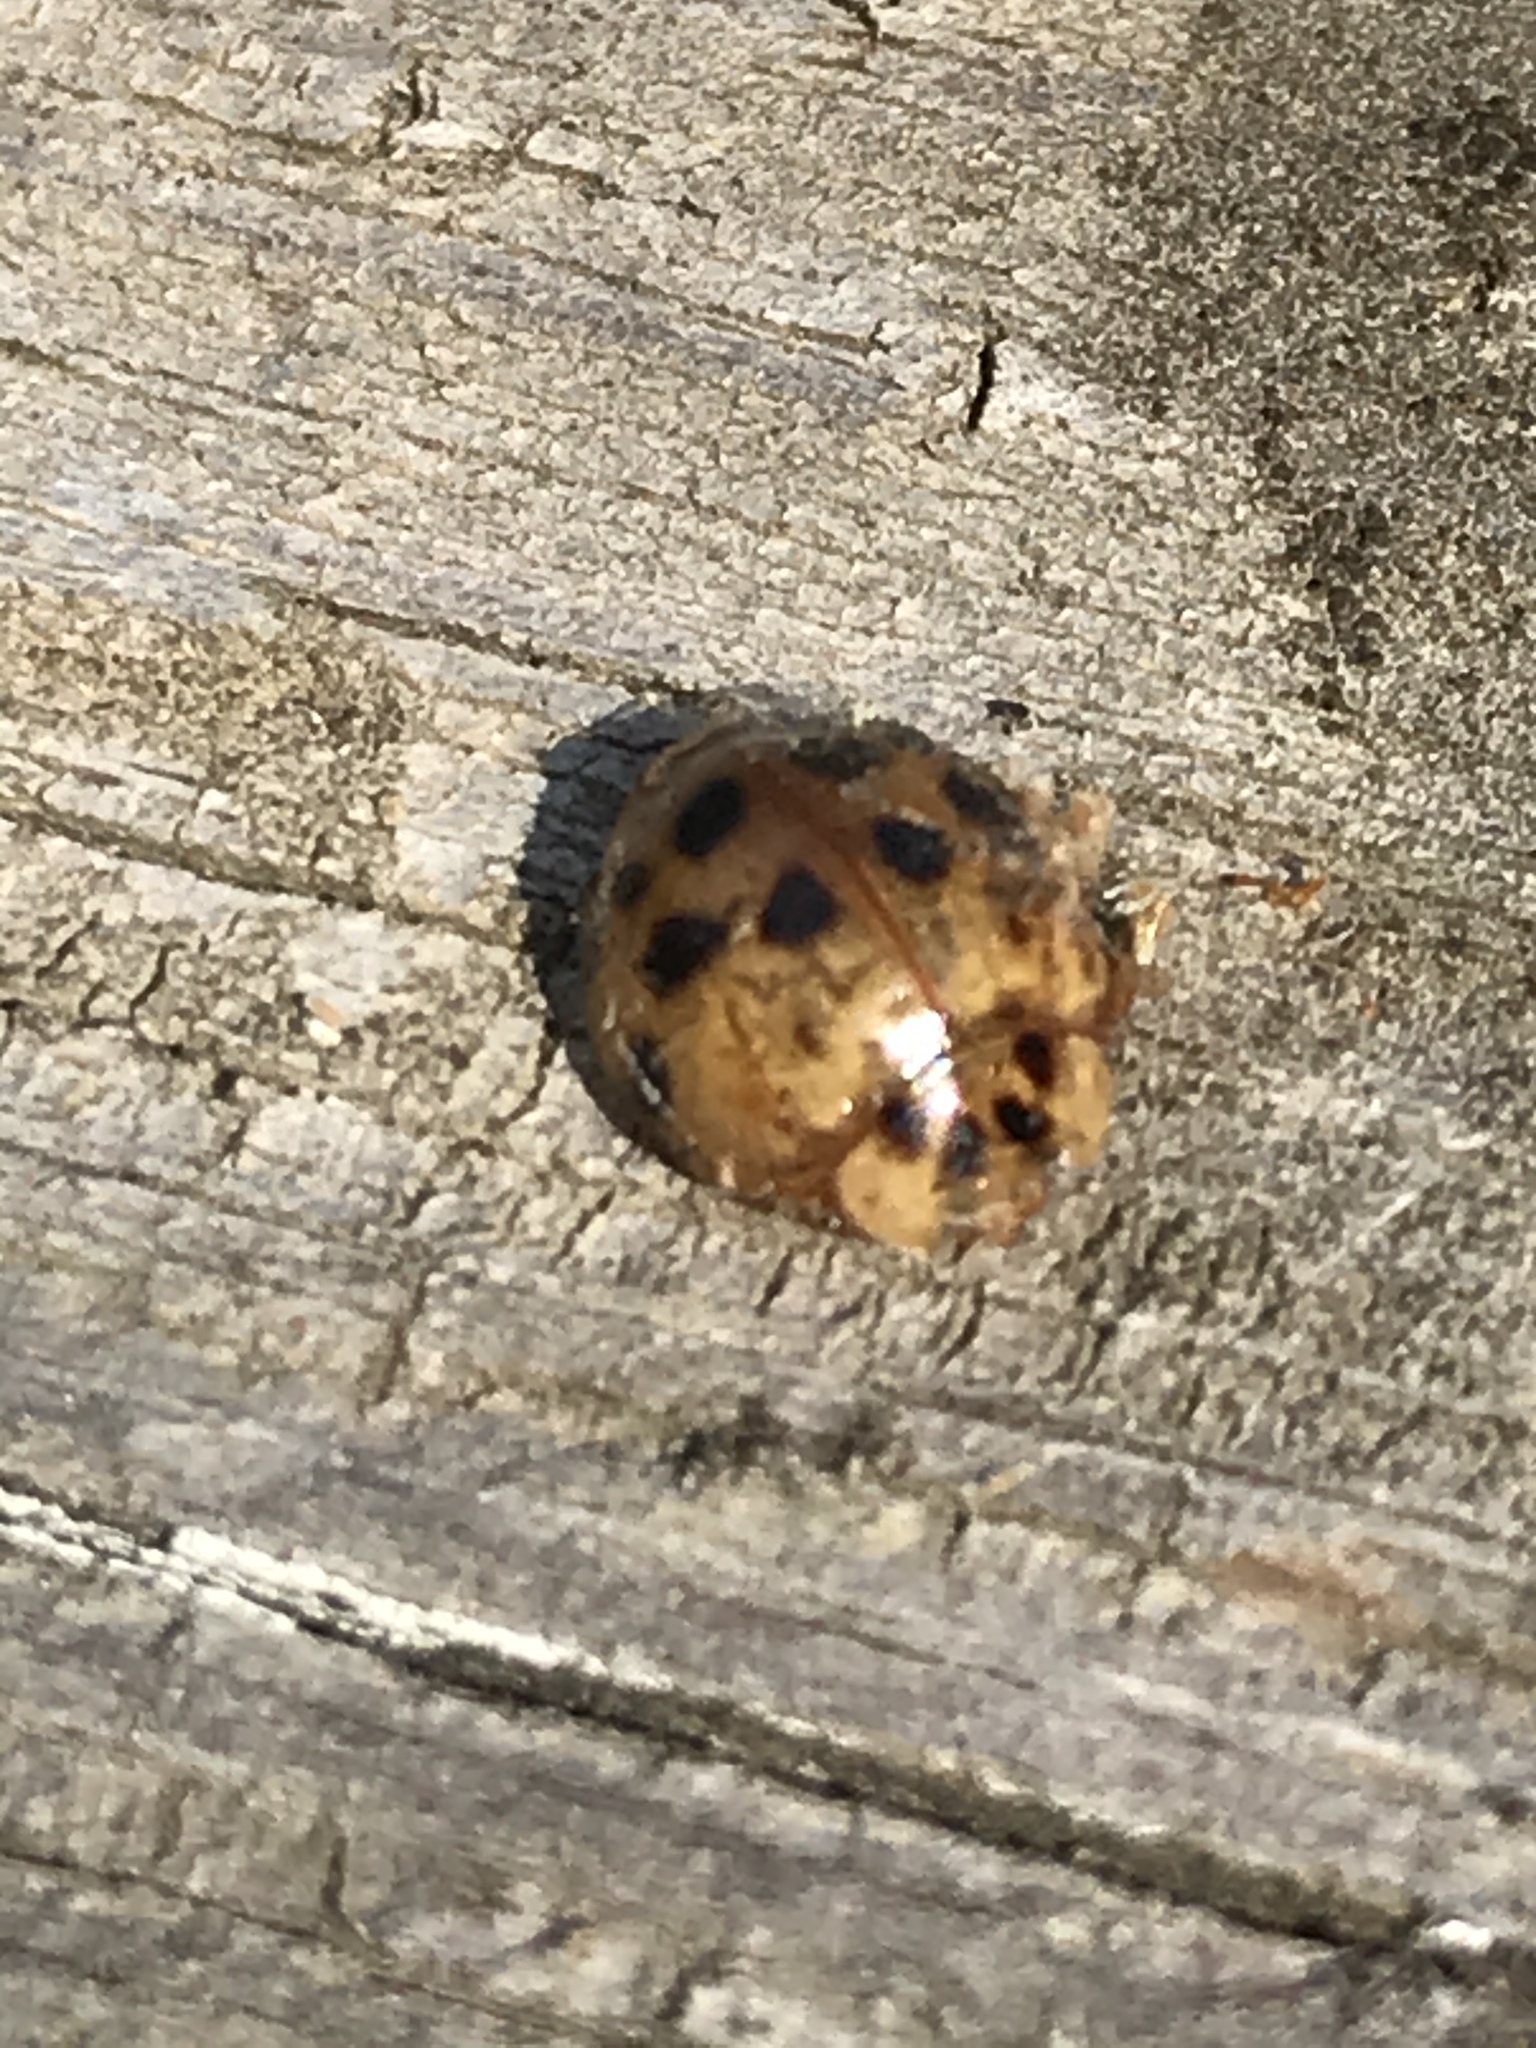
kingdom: Animalia
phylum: Arthropoda
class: Insecta
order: Coleoptera
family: Coccinellidae
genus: Harmonia
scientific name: Harmonia axyridis
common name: Harlequin ladybird
